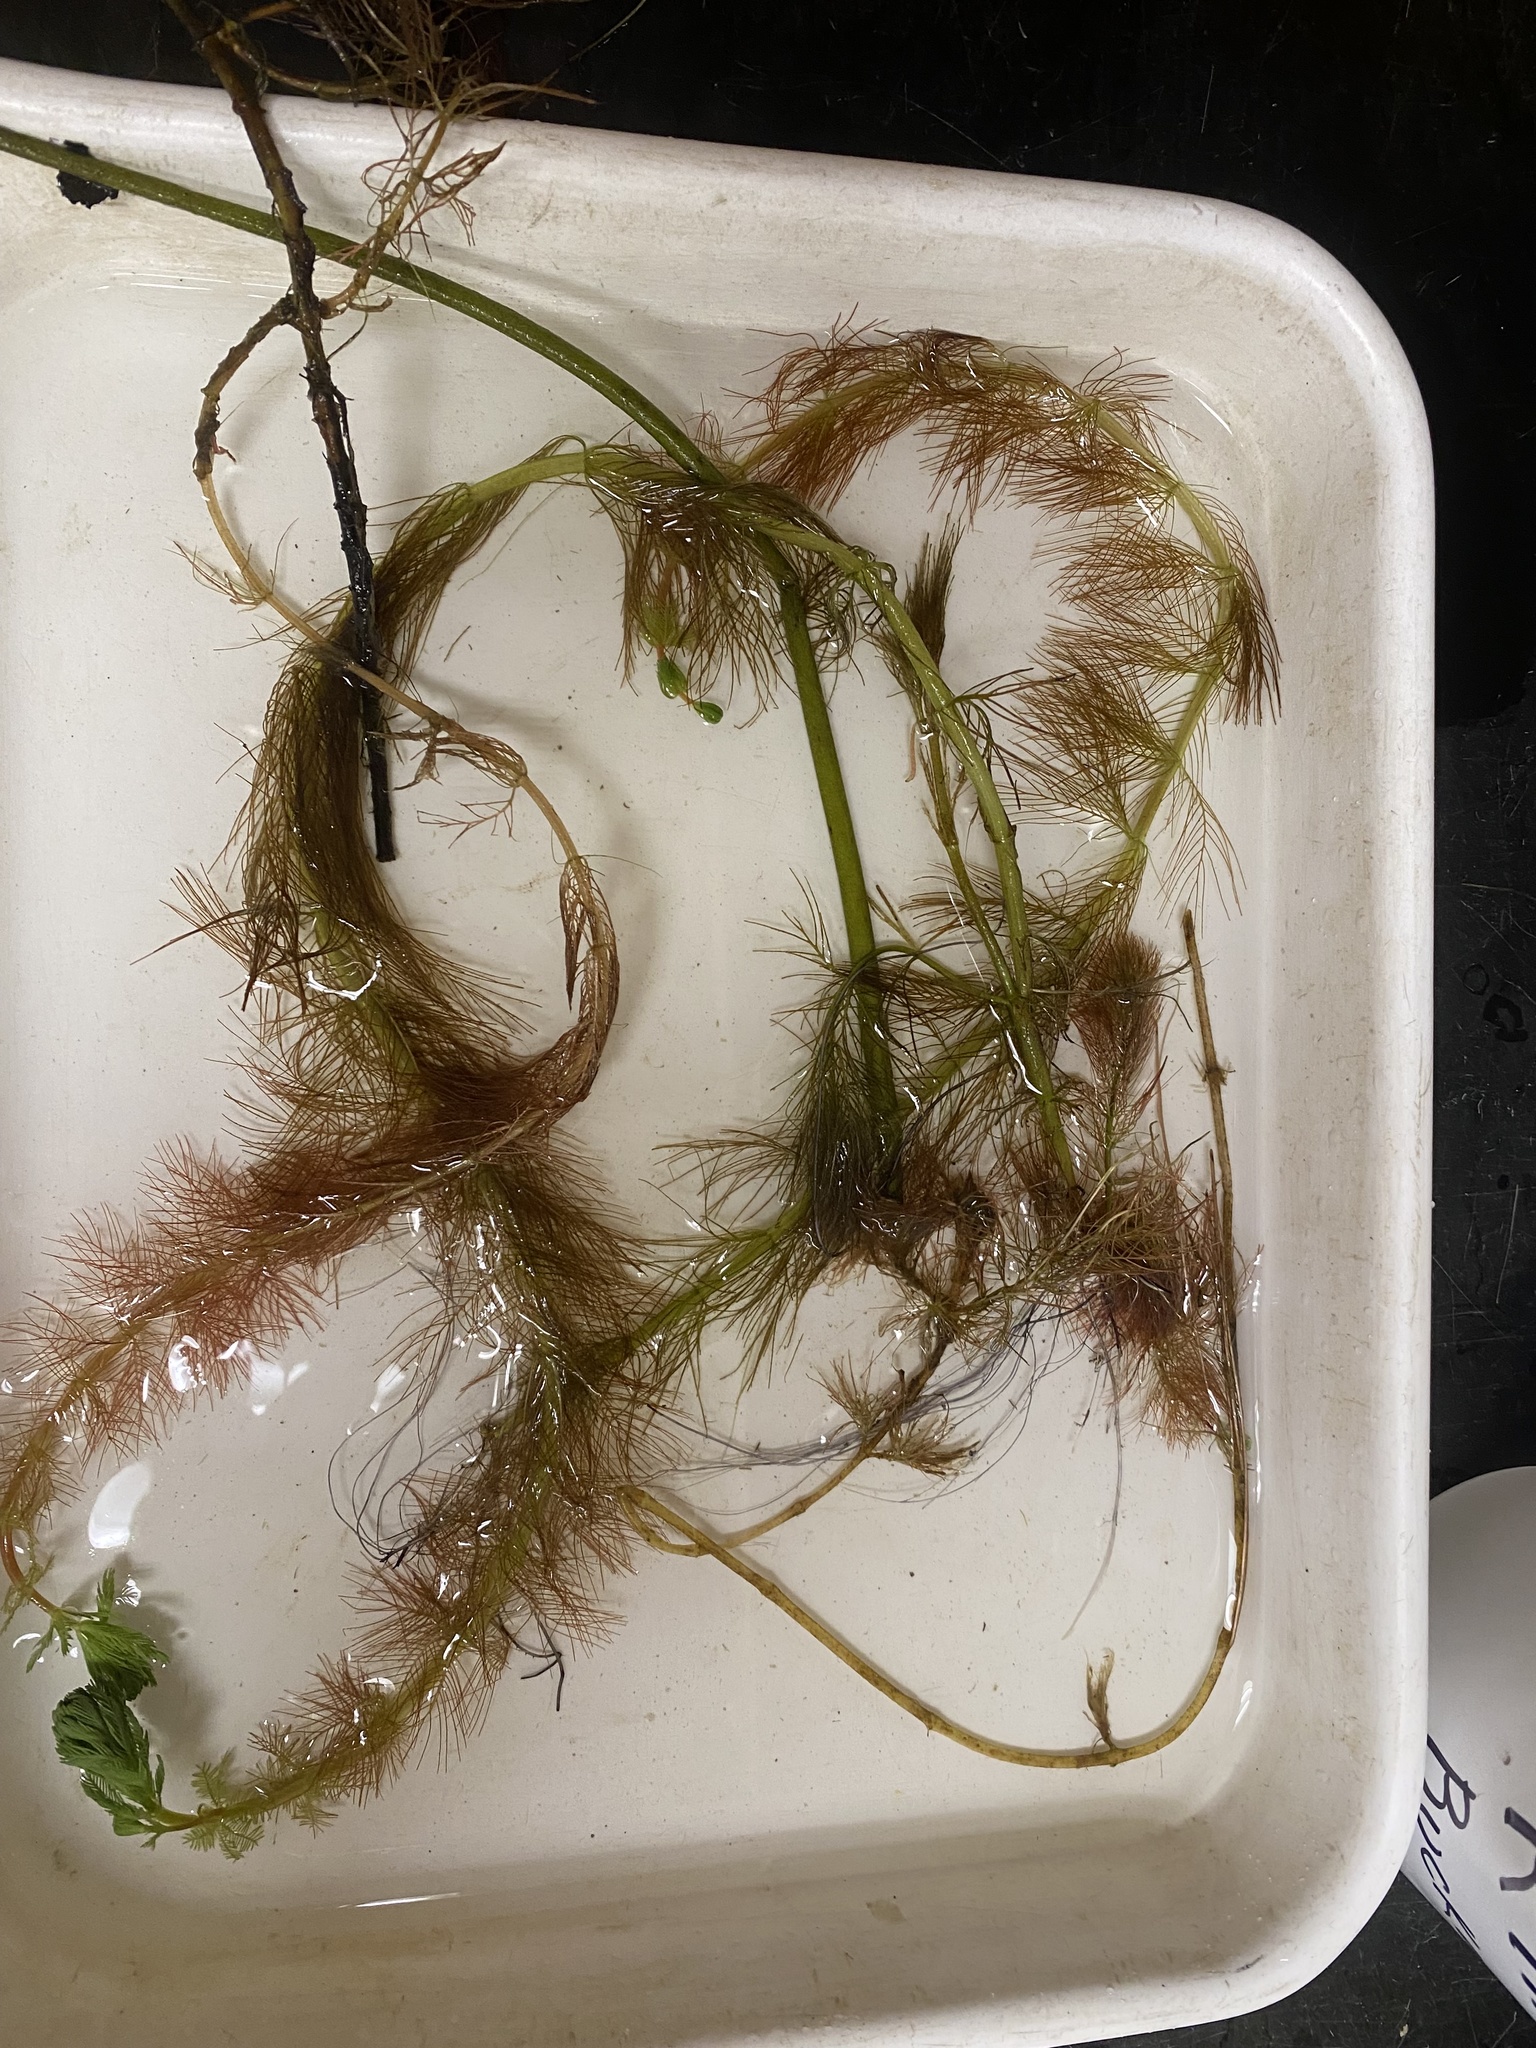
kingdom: Plantae
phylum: Tracheophyta
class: Magnoliopsida
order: Saxifragales
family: Haloragaceae
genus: Myriophyllum
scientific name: Myriophyllum aquaticum
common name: Parrot's feather
